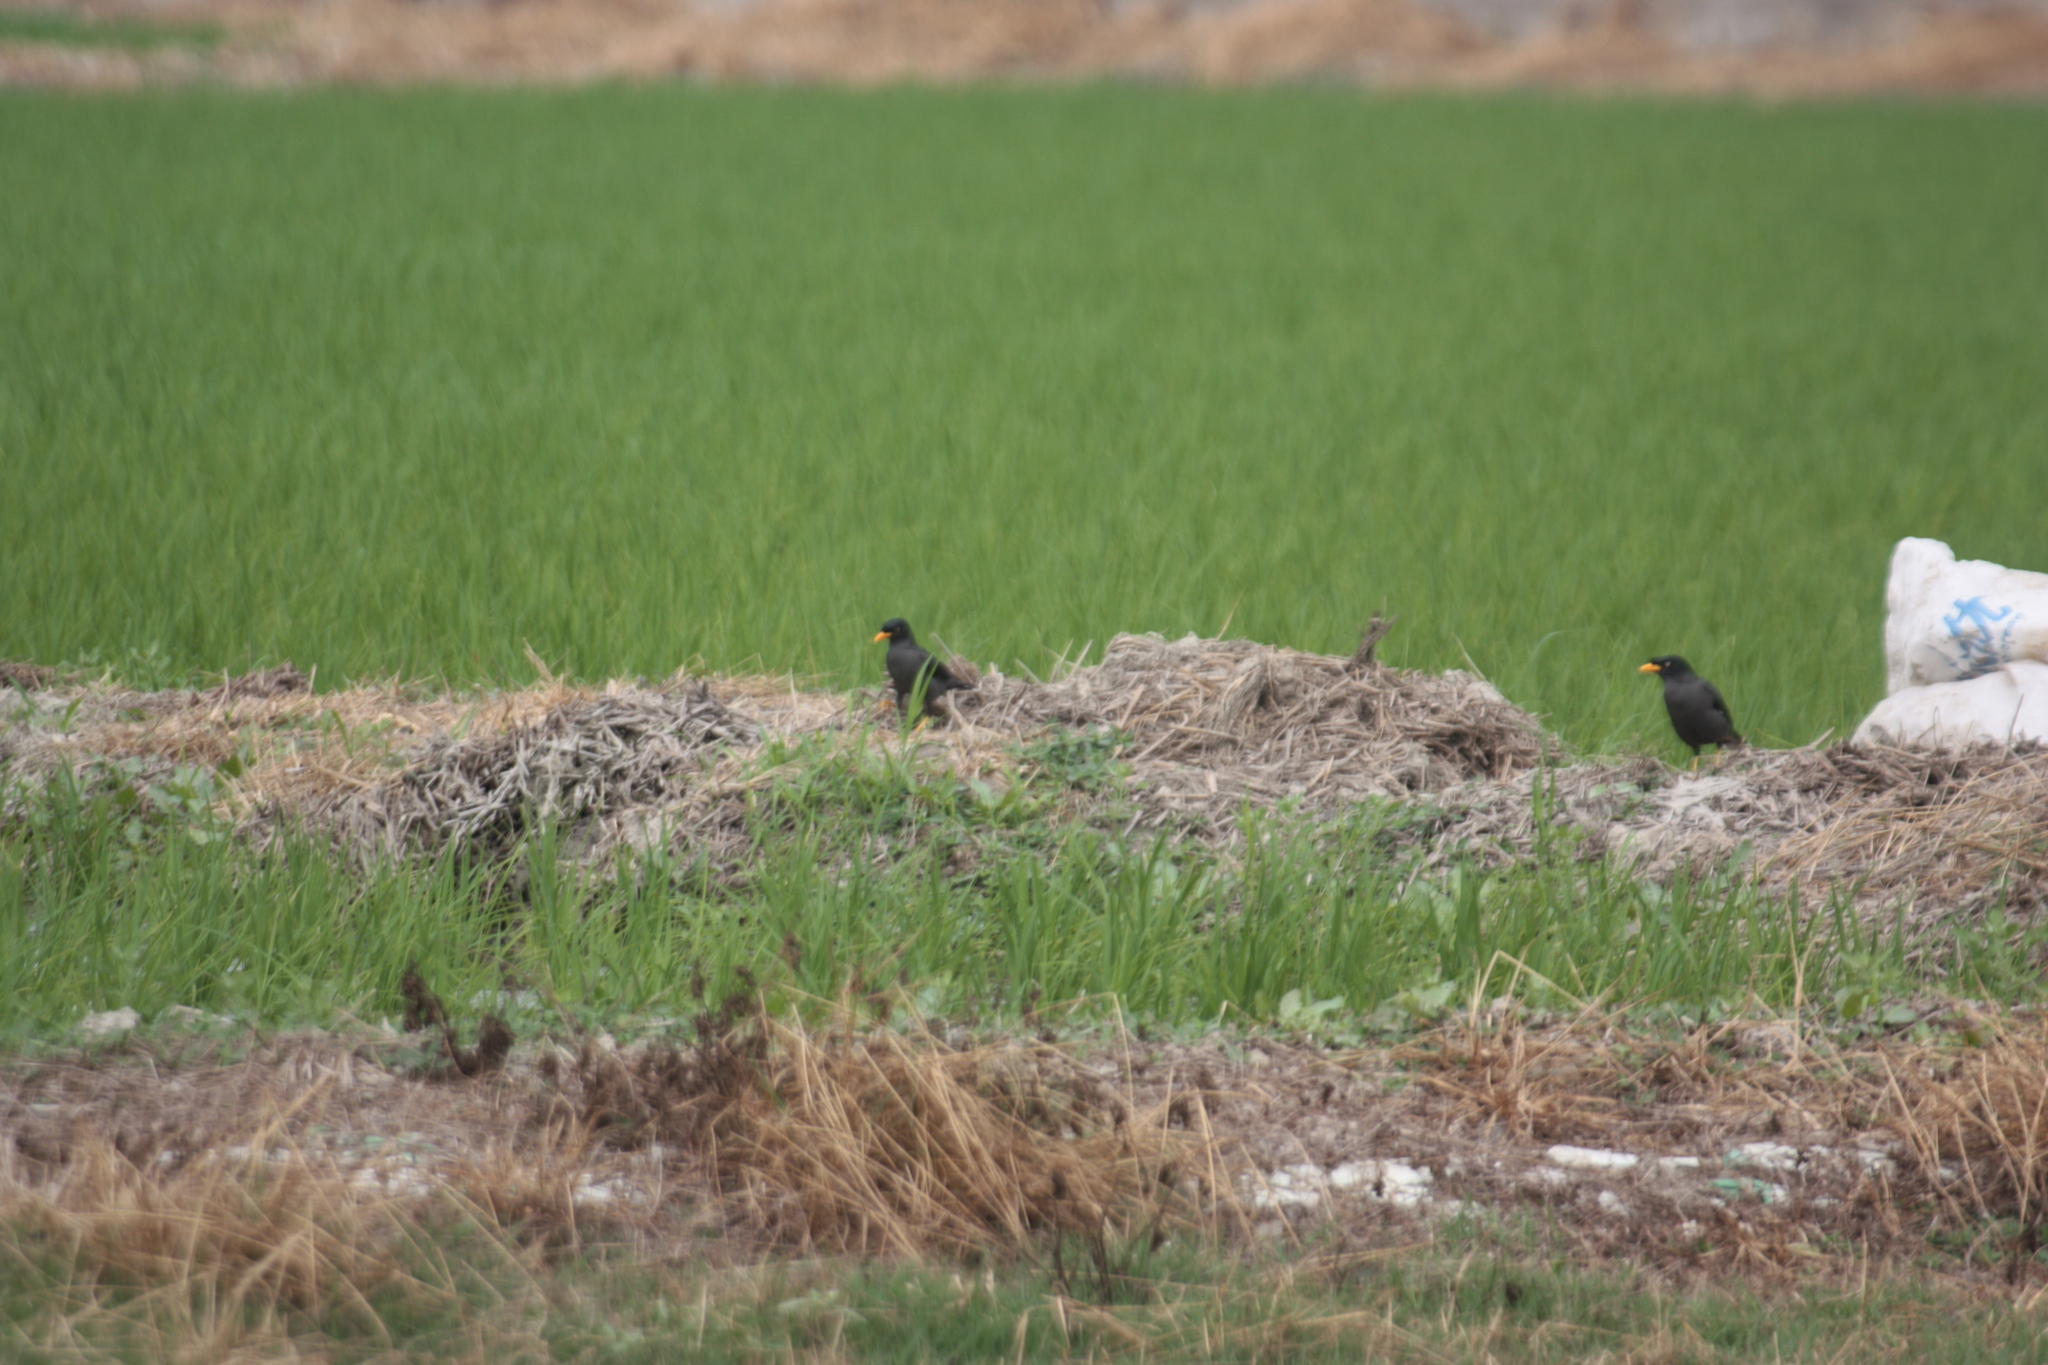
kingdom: Animalia
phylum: Chordata
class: Aves
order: Passeriformes
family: Sturnidae
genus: Acridotheres
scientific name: Acridotheres javanicus
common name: Javan myna
